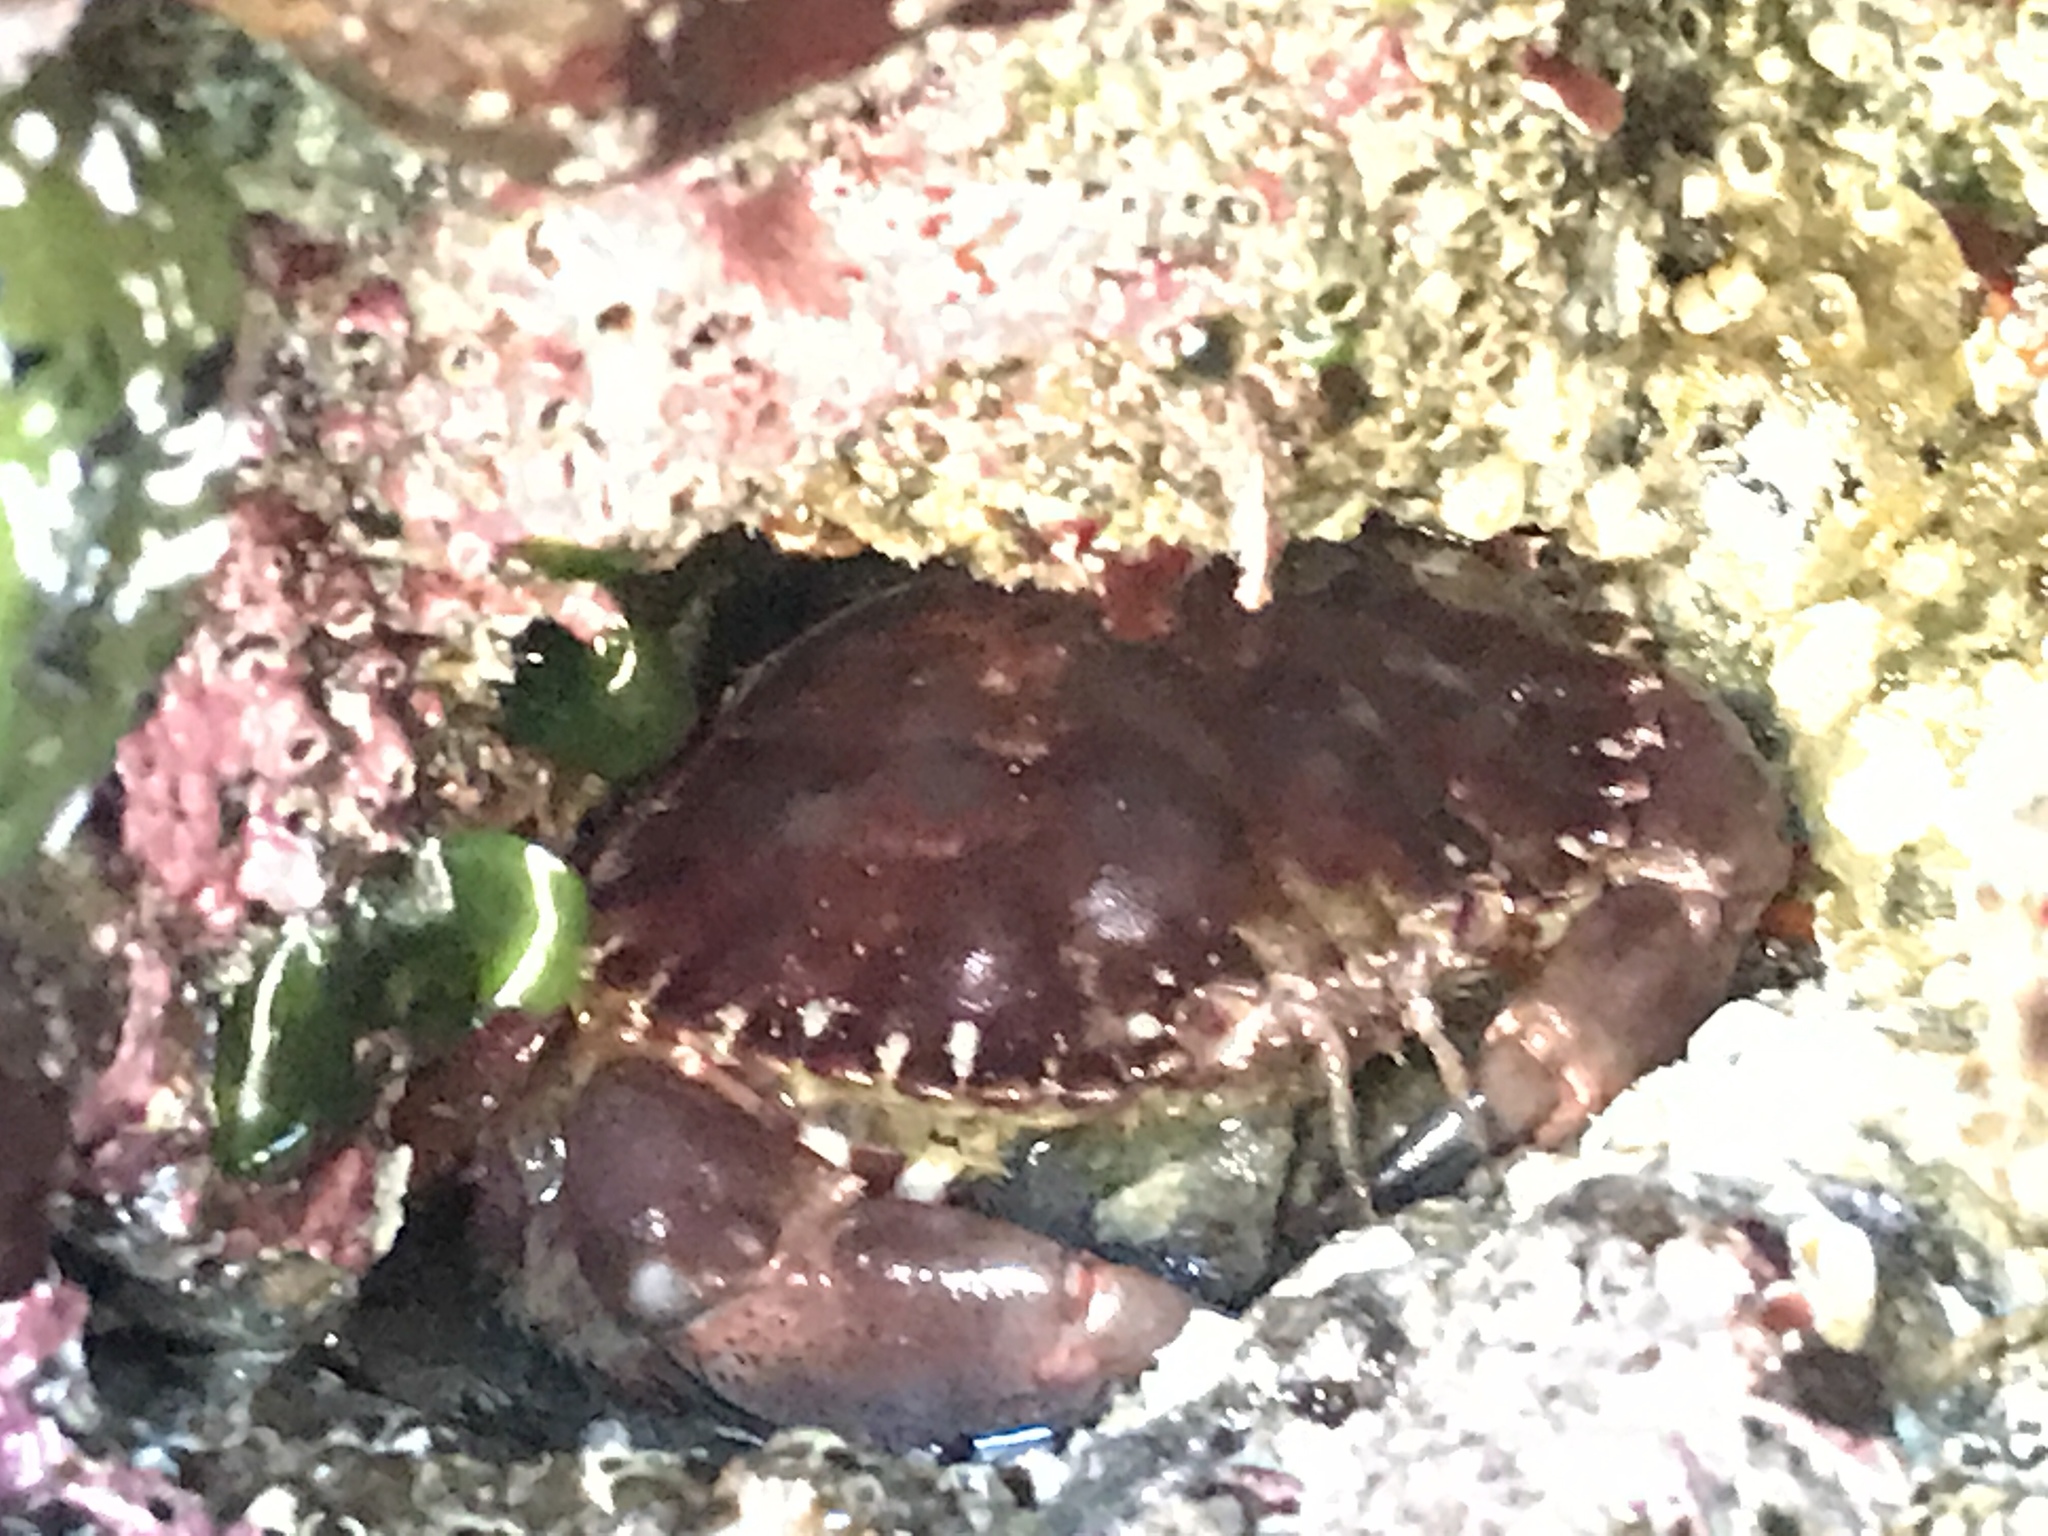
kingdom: Animalia
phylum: Arthropoda
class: Malacostraca
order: Decapoda
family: Cancridae
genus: Romaleon
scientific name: Romaleon antennarium
